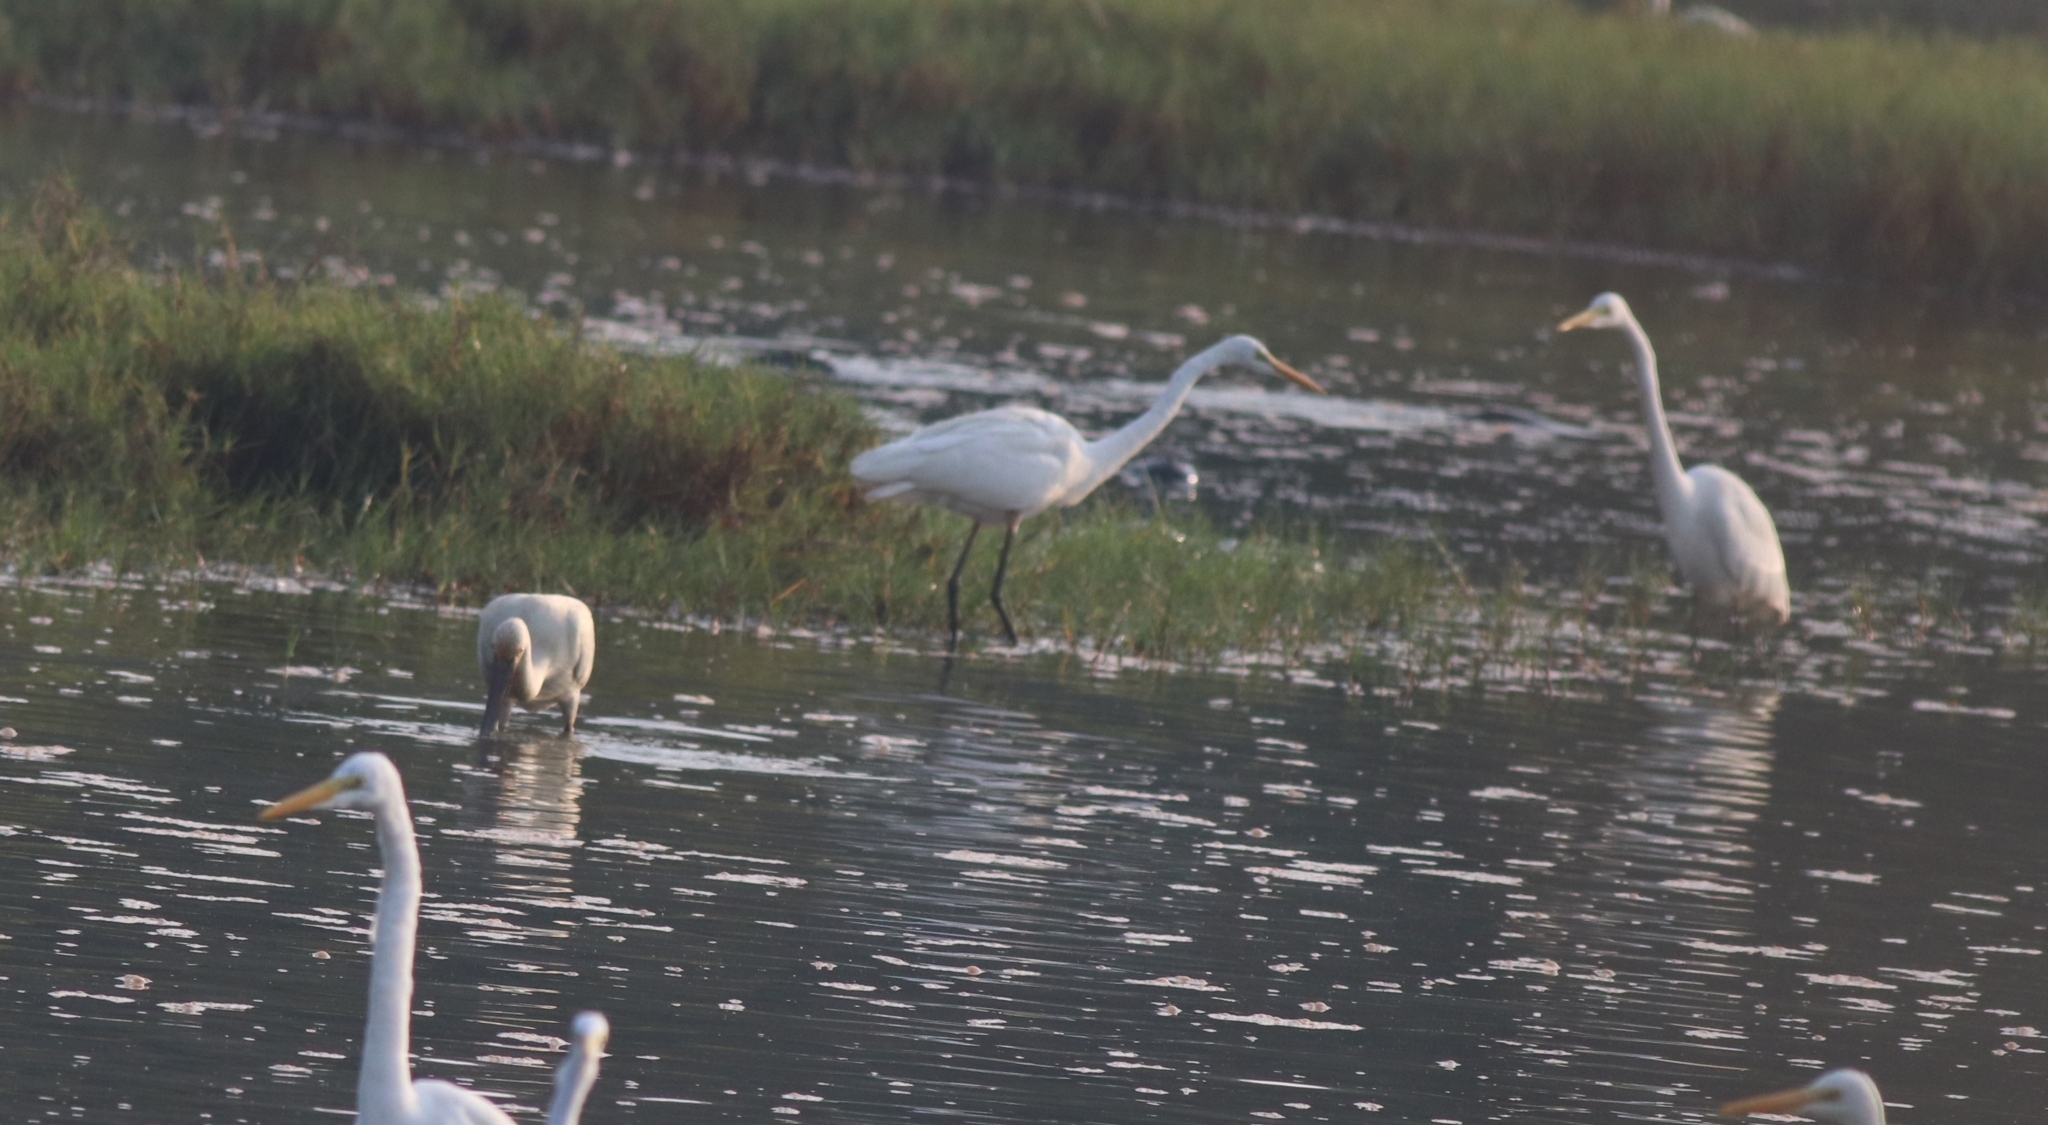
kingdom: Animalia
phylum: Chordata
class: Aves
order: Pelecaniformes
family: Ardeidae
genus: Ardea
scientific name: Ardea alba
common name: Great egret
